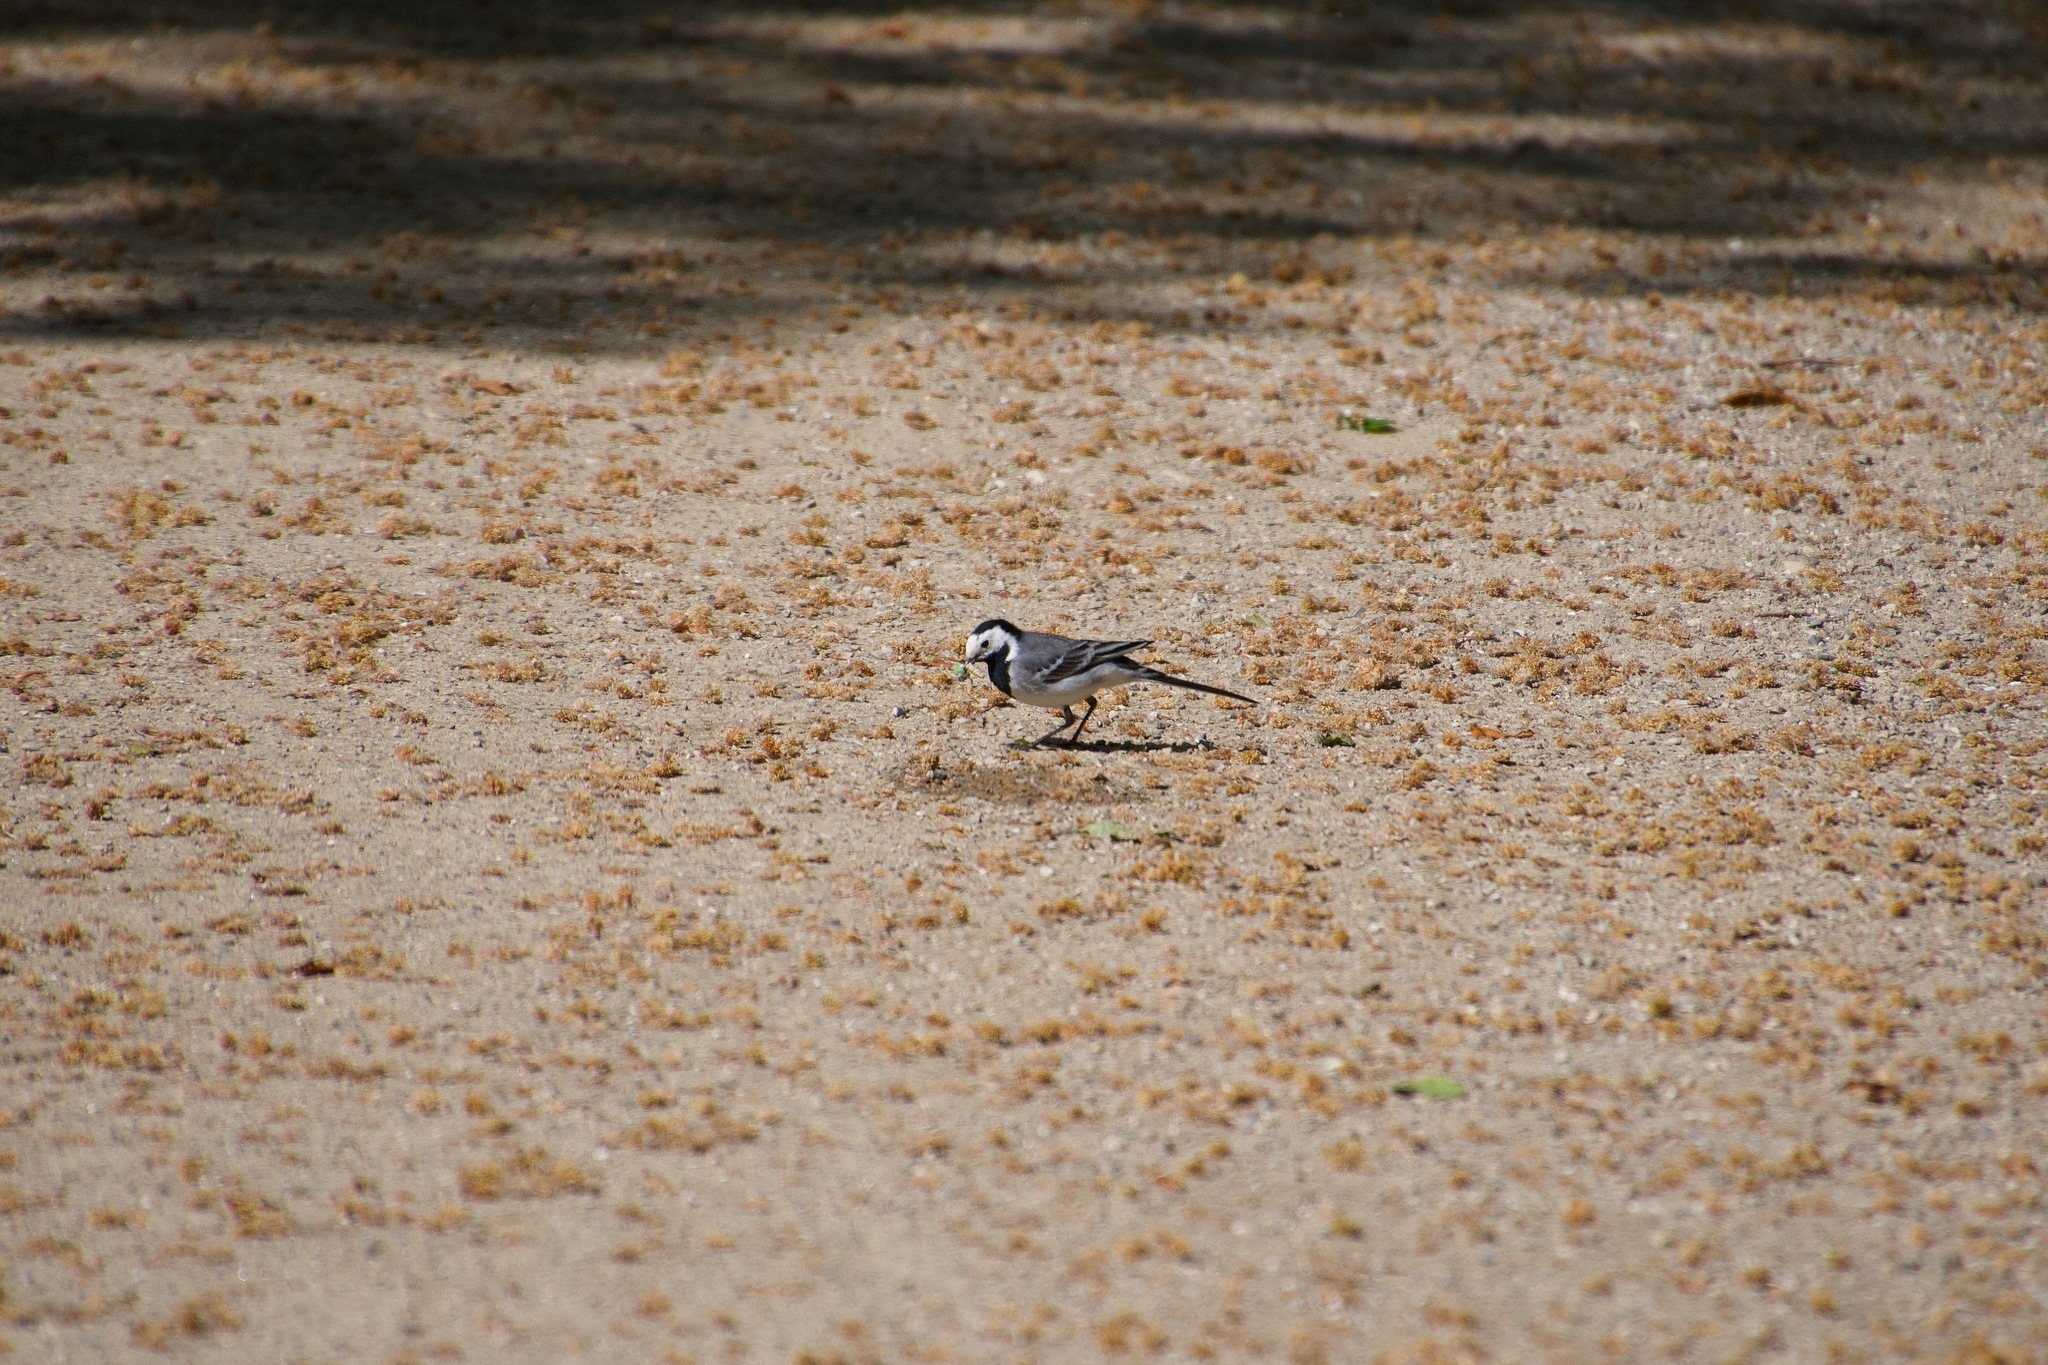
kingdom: Animalia
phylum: Chordata
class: Aves
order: Passeriformes
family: Motacillidae
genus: Motacilla
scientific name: Motacilla alba
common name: White wagtail
